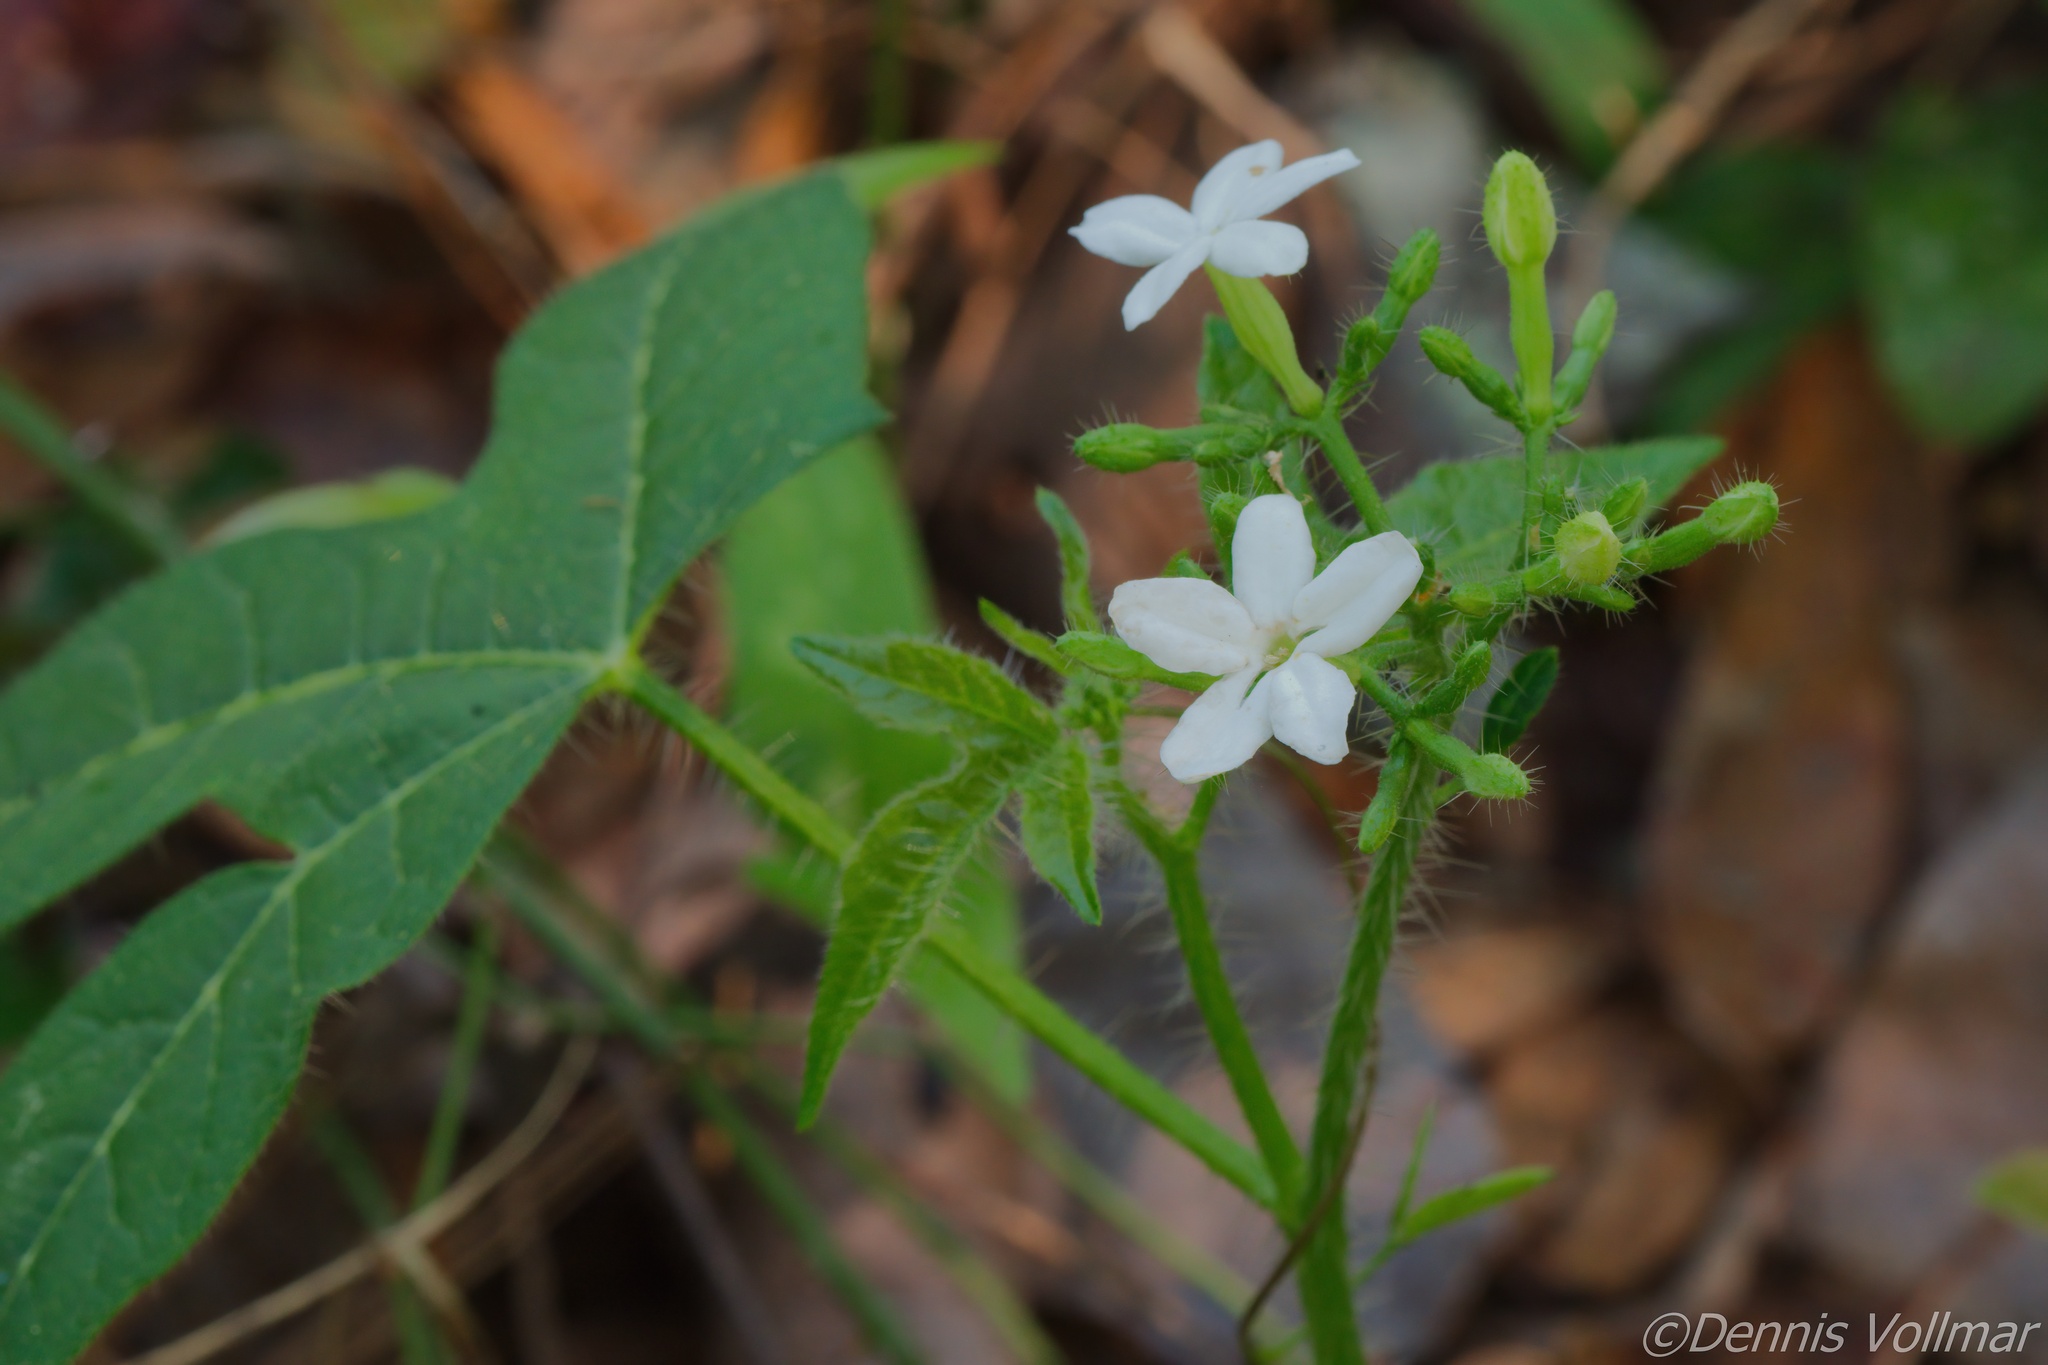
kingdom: Plantae
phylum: Tracheophyta
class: Magnoliopsida
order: Malpighiales
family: Euphorbiaceae
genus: Cnidoscolus
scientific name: Cnidoscolus stimulosus
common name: Bull-nettle
